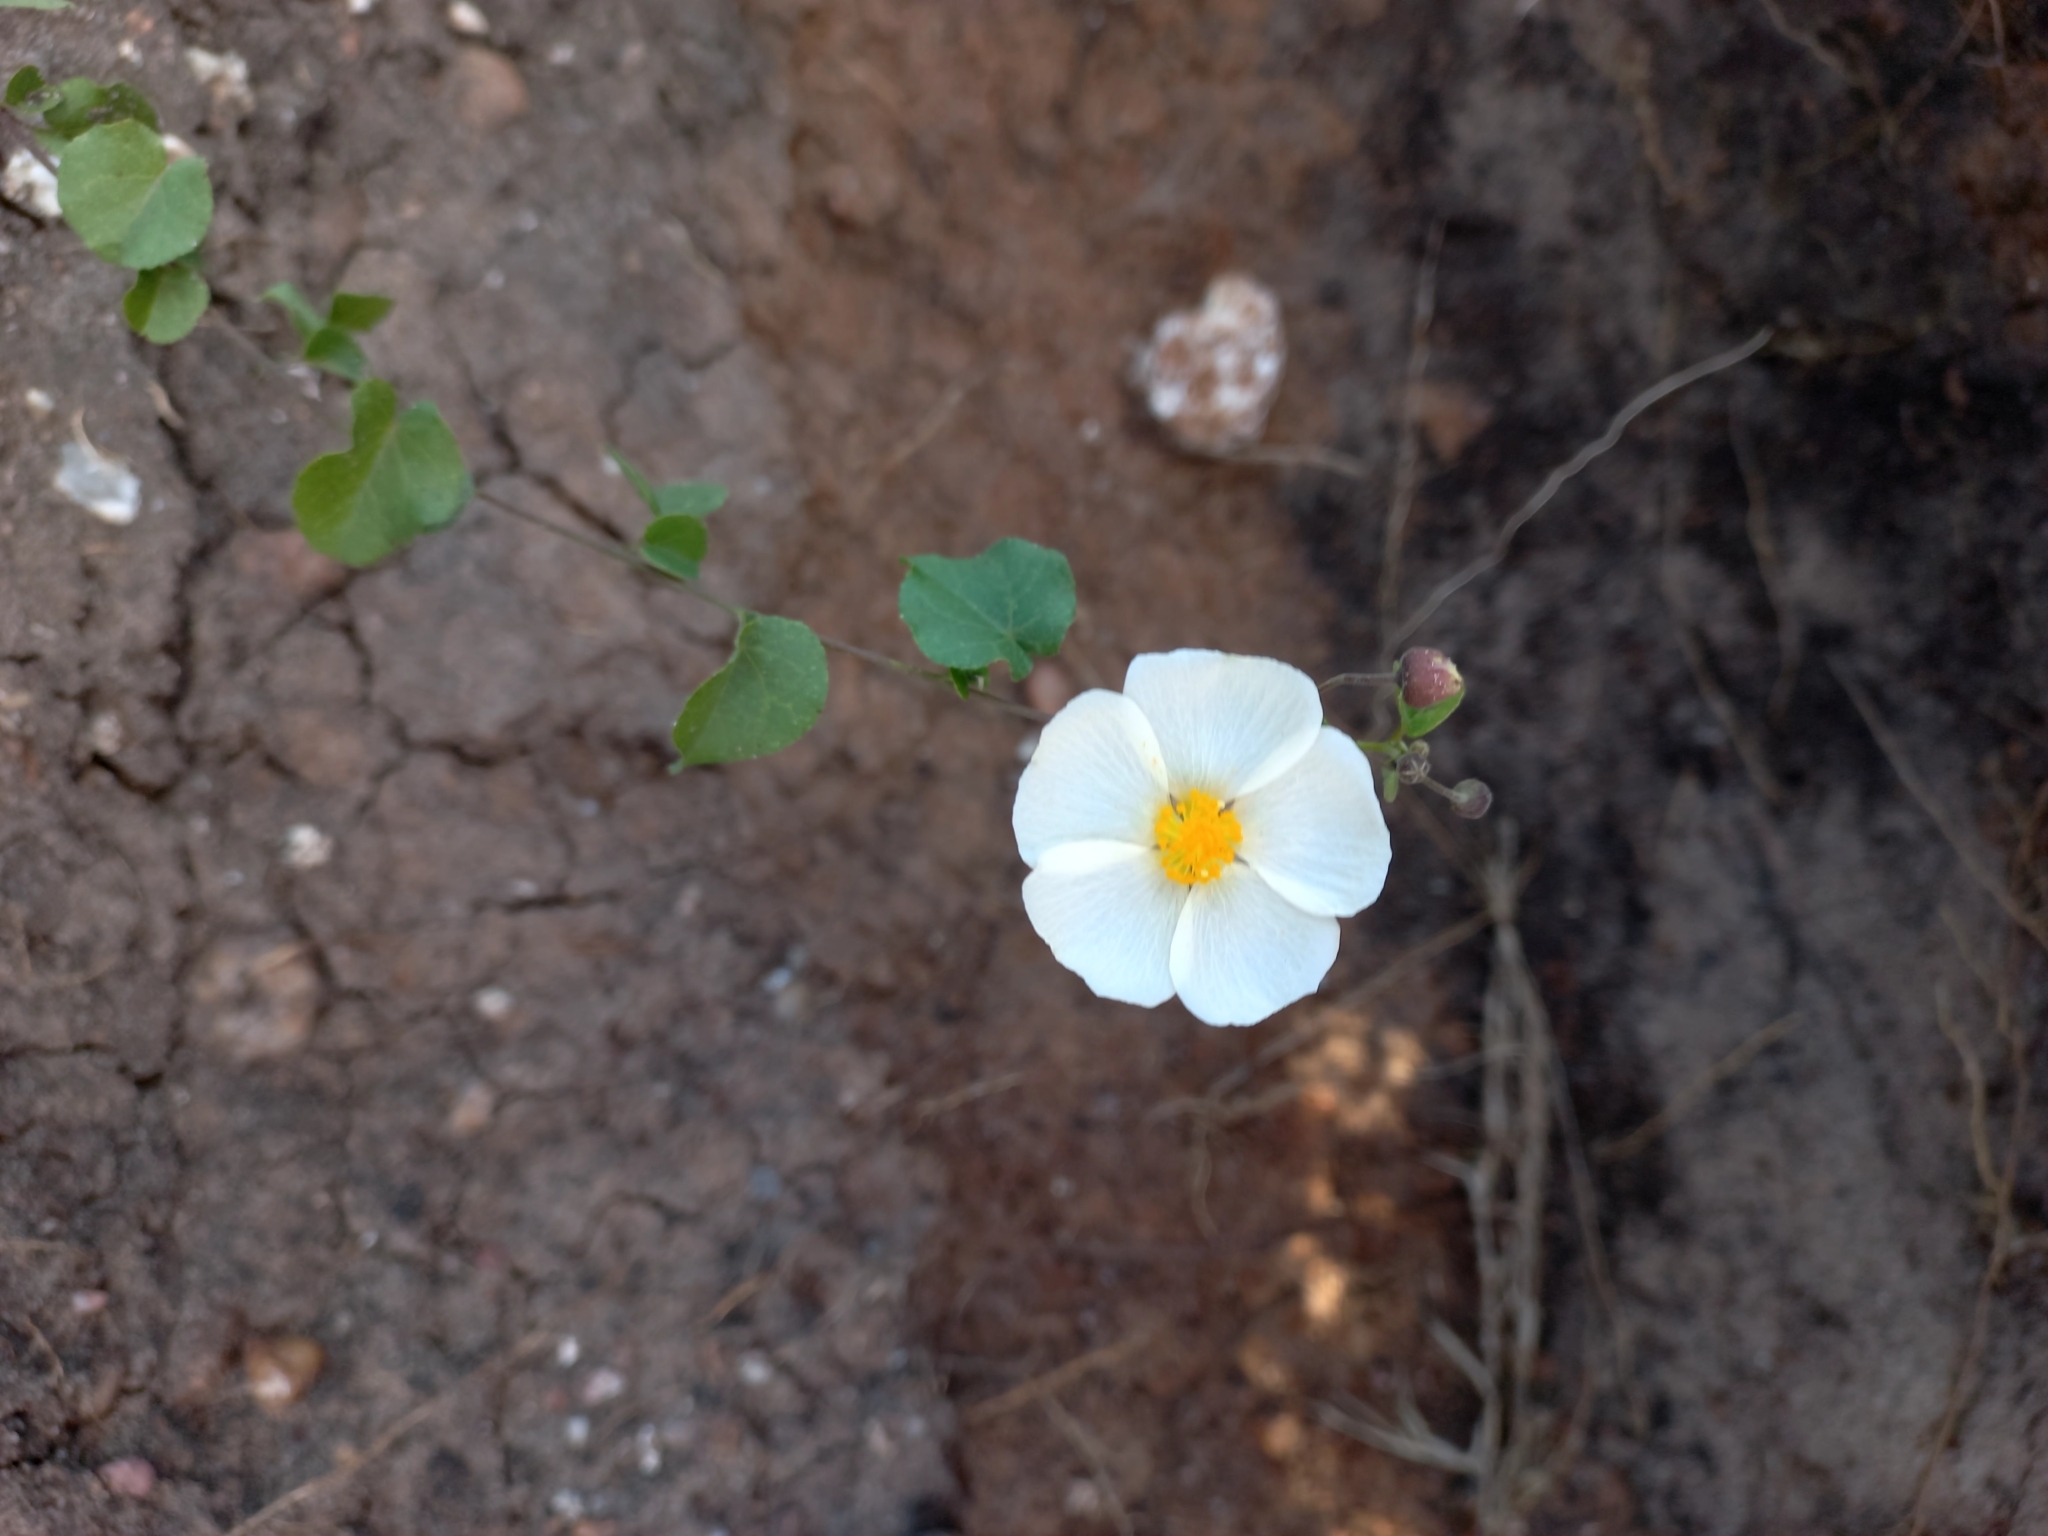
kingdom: Plantae
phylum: Tracheophyta
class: Magnoliopsida
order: Malvales
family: Malvaceae
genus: Wissadula
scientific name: Wissadula glechomifolia
